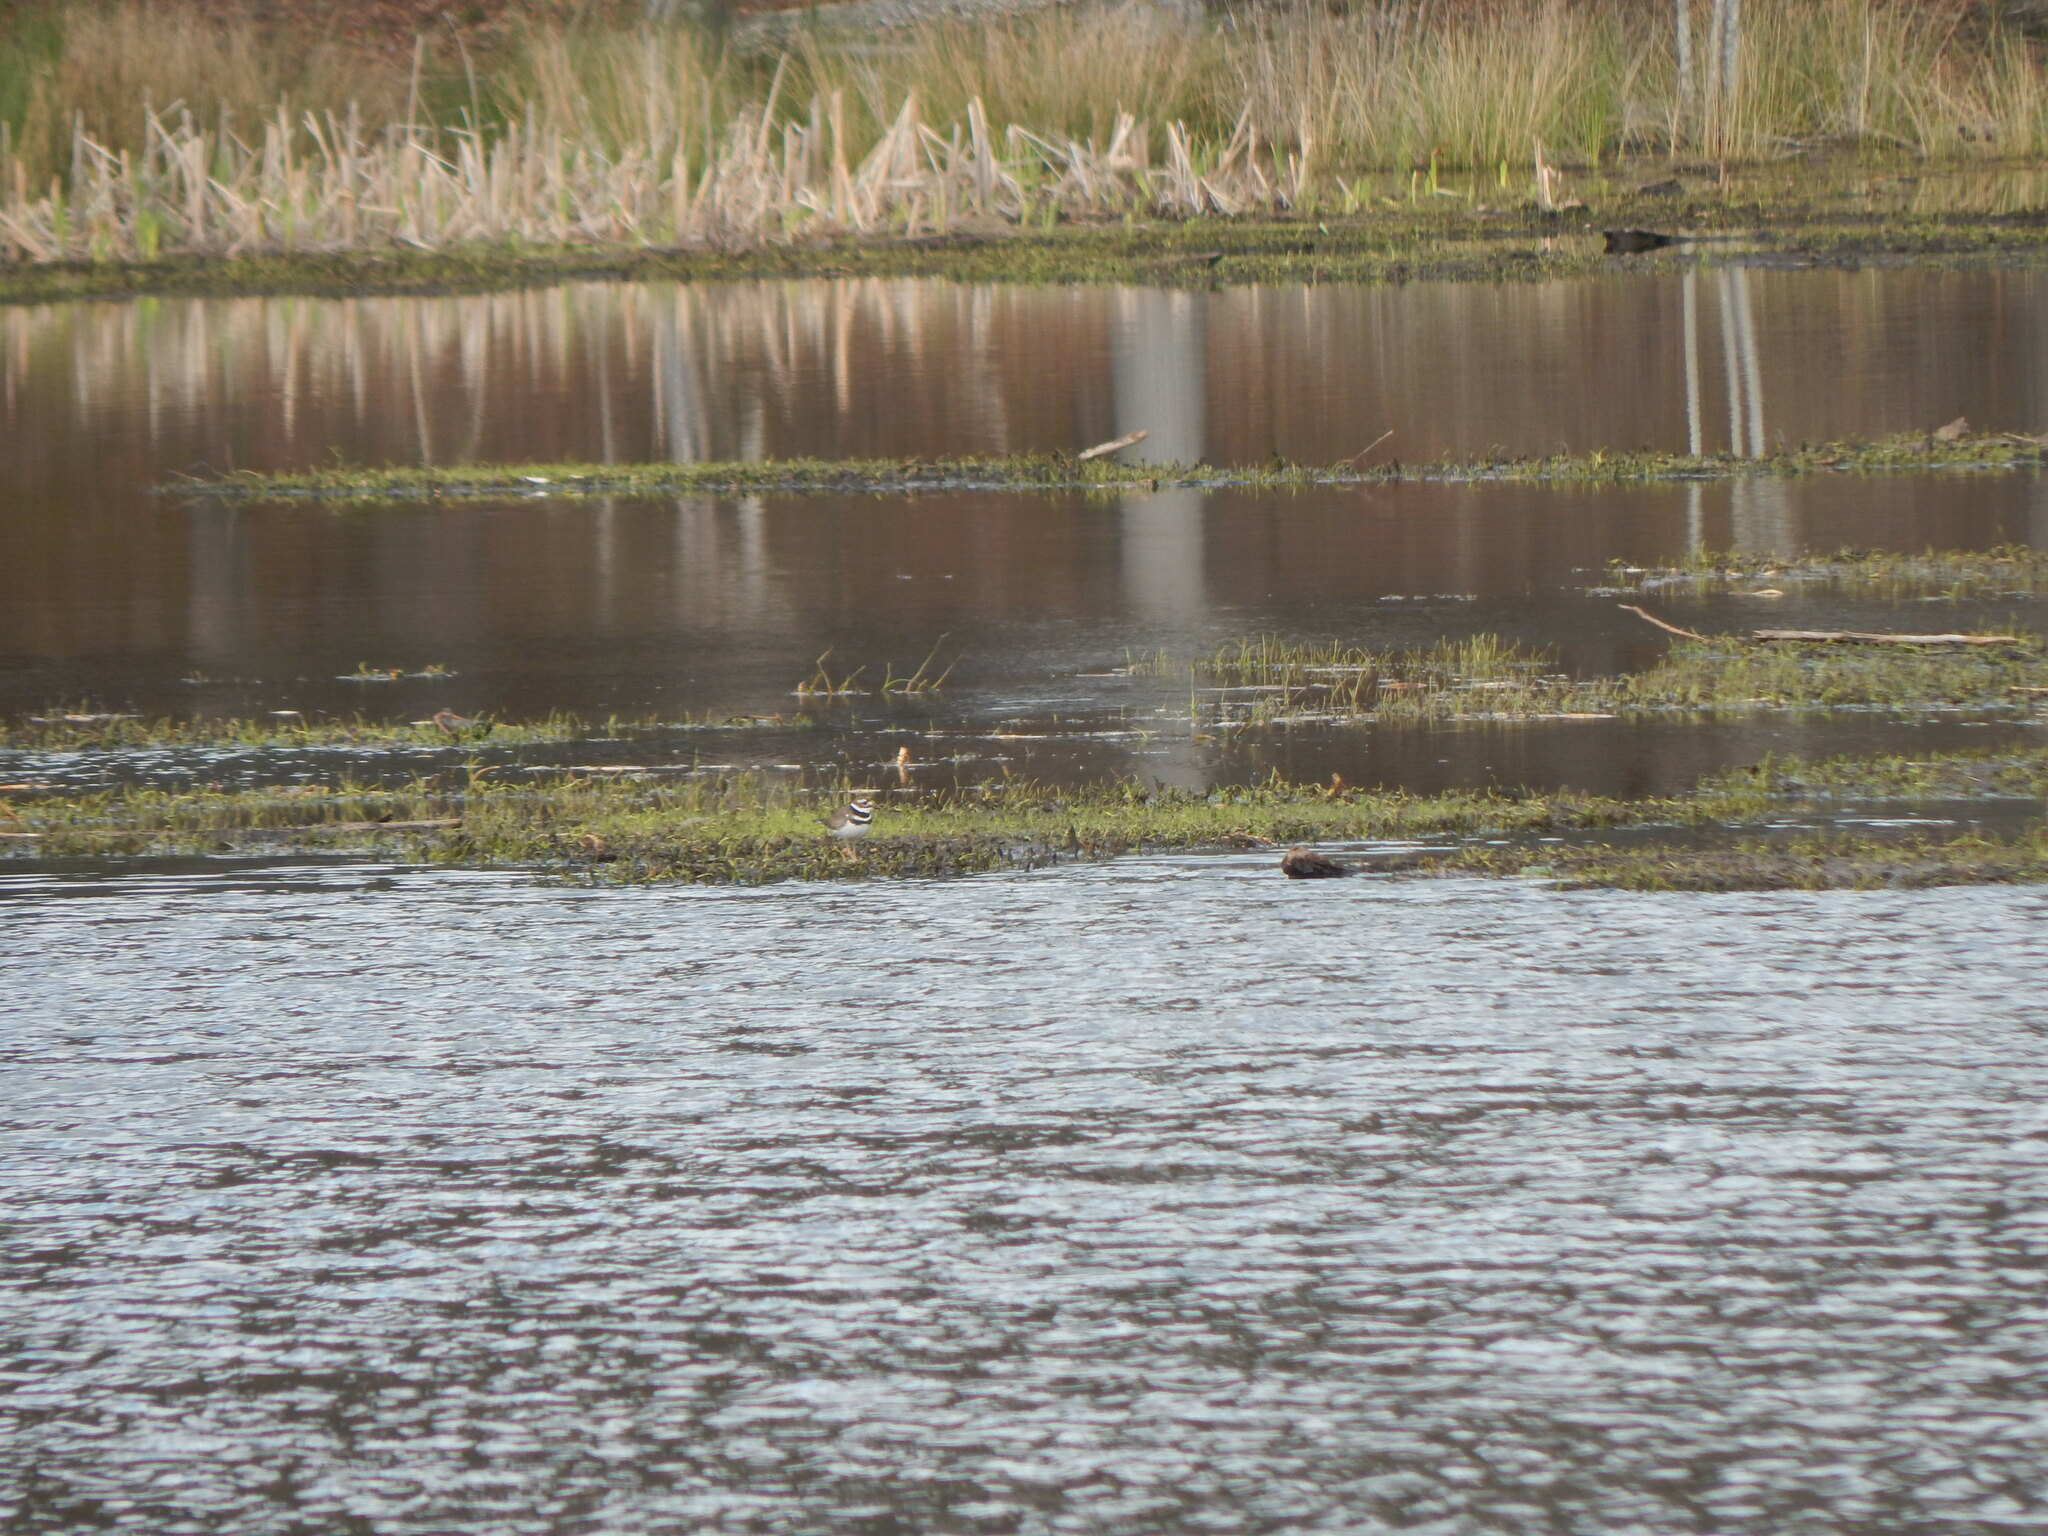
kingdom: Animalia
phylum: Chordata
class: Aves
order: Charadriiformes
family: Charadriidae
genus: Charadrius
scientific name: Charadrius vociferus
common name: Killdeer
